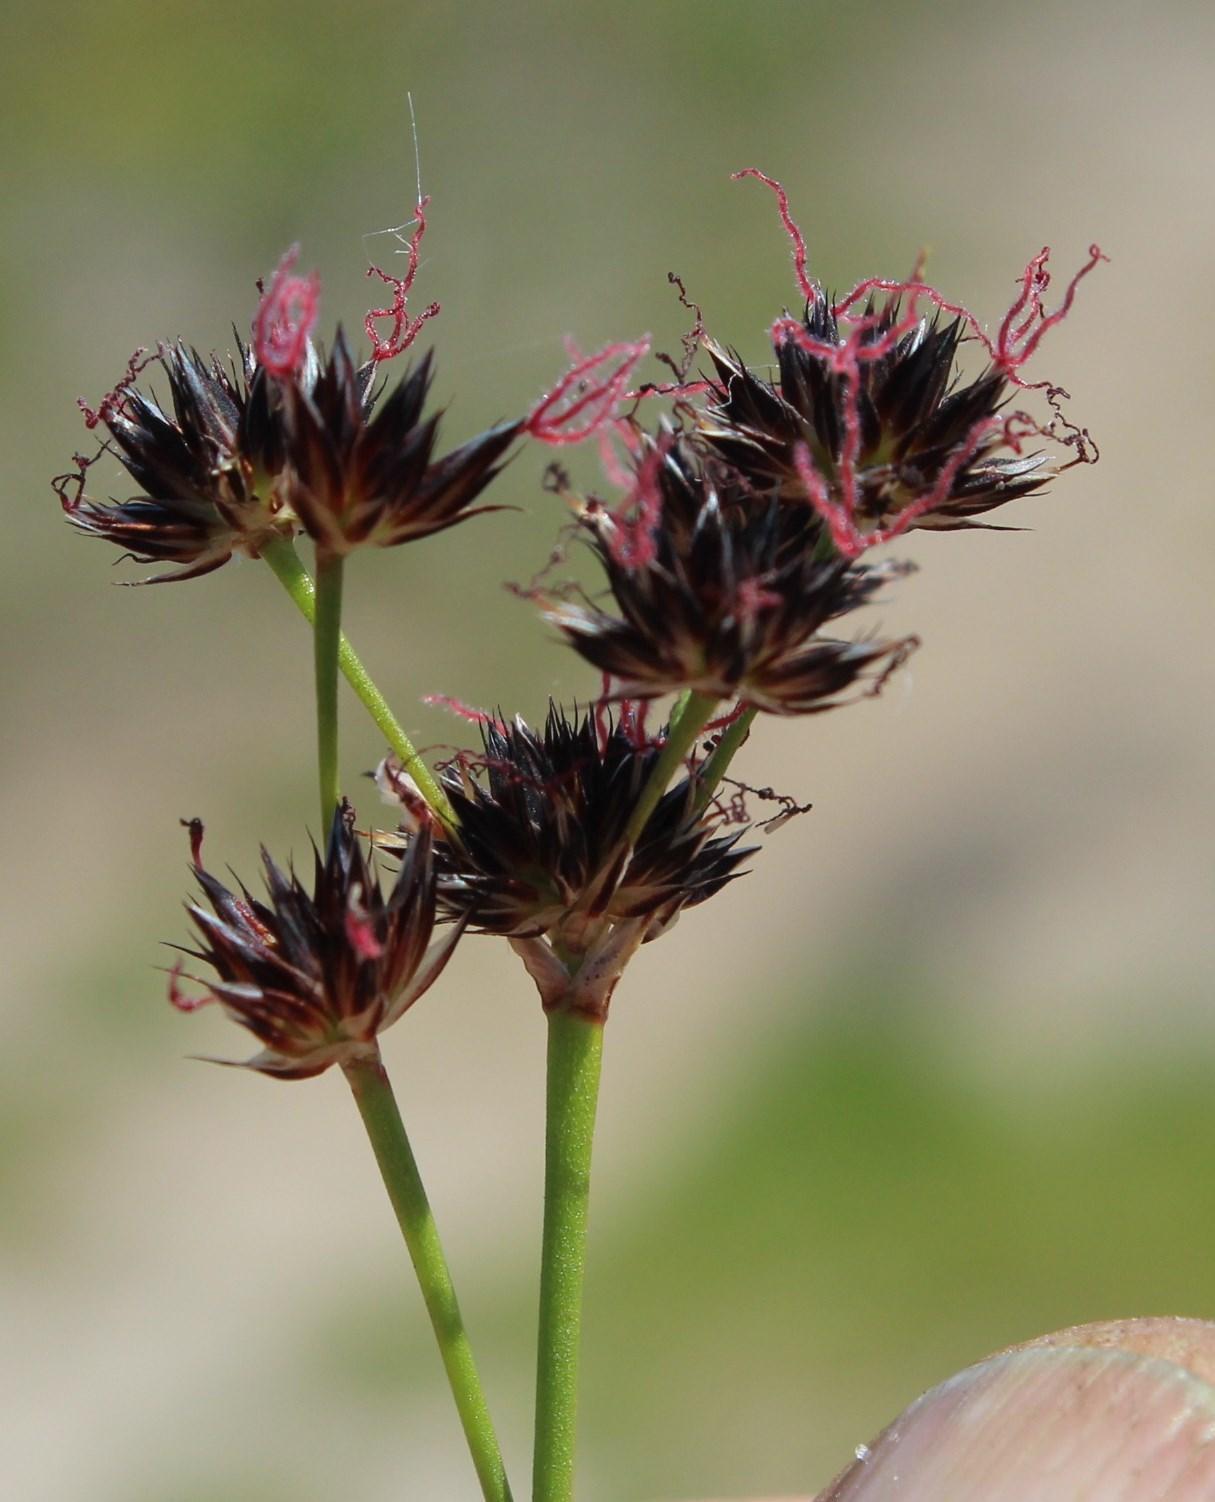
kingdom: Plantae
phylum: Tracheophyta
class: Liliopsida
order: Poales
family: Juncaceae
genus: Juncus
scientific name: Juncus cephalotes
